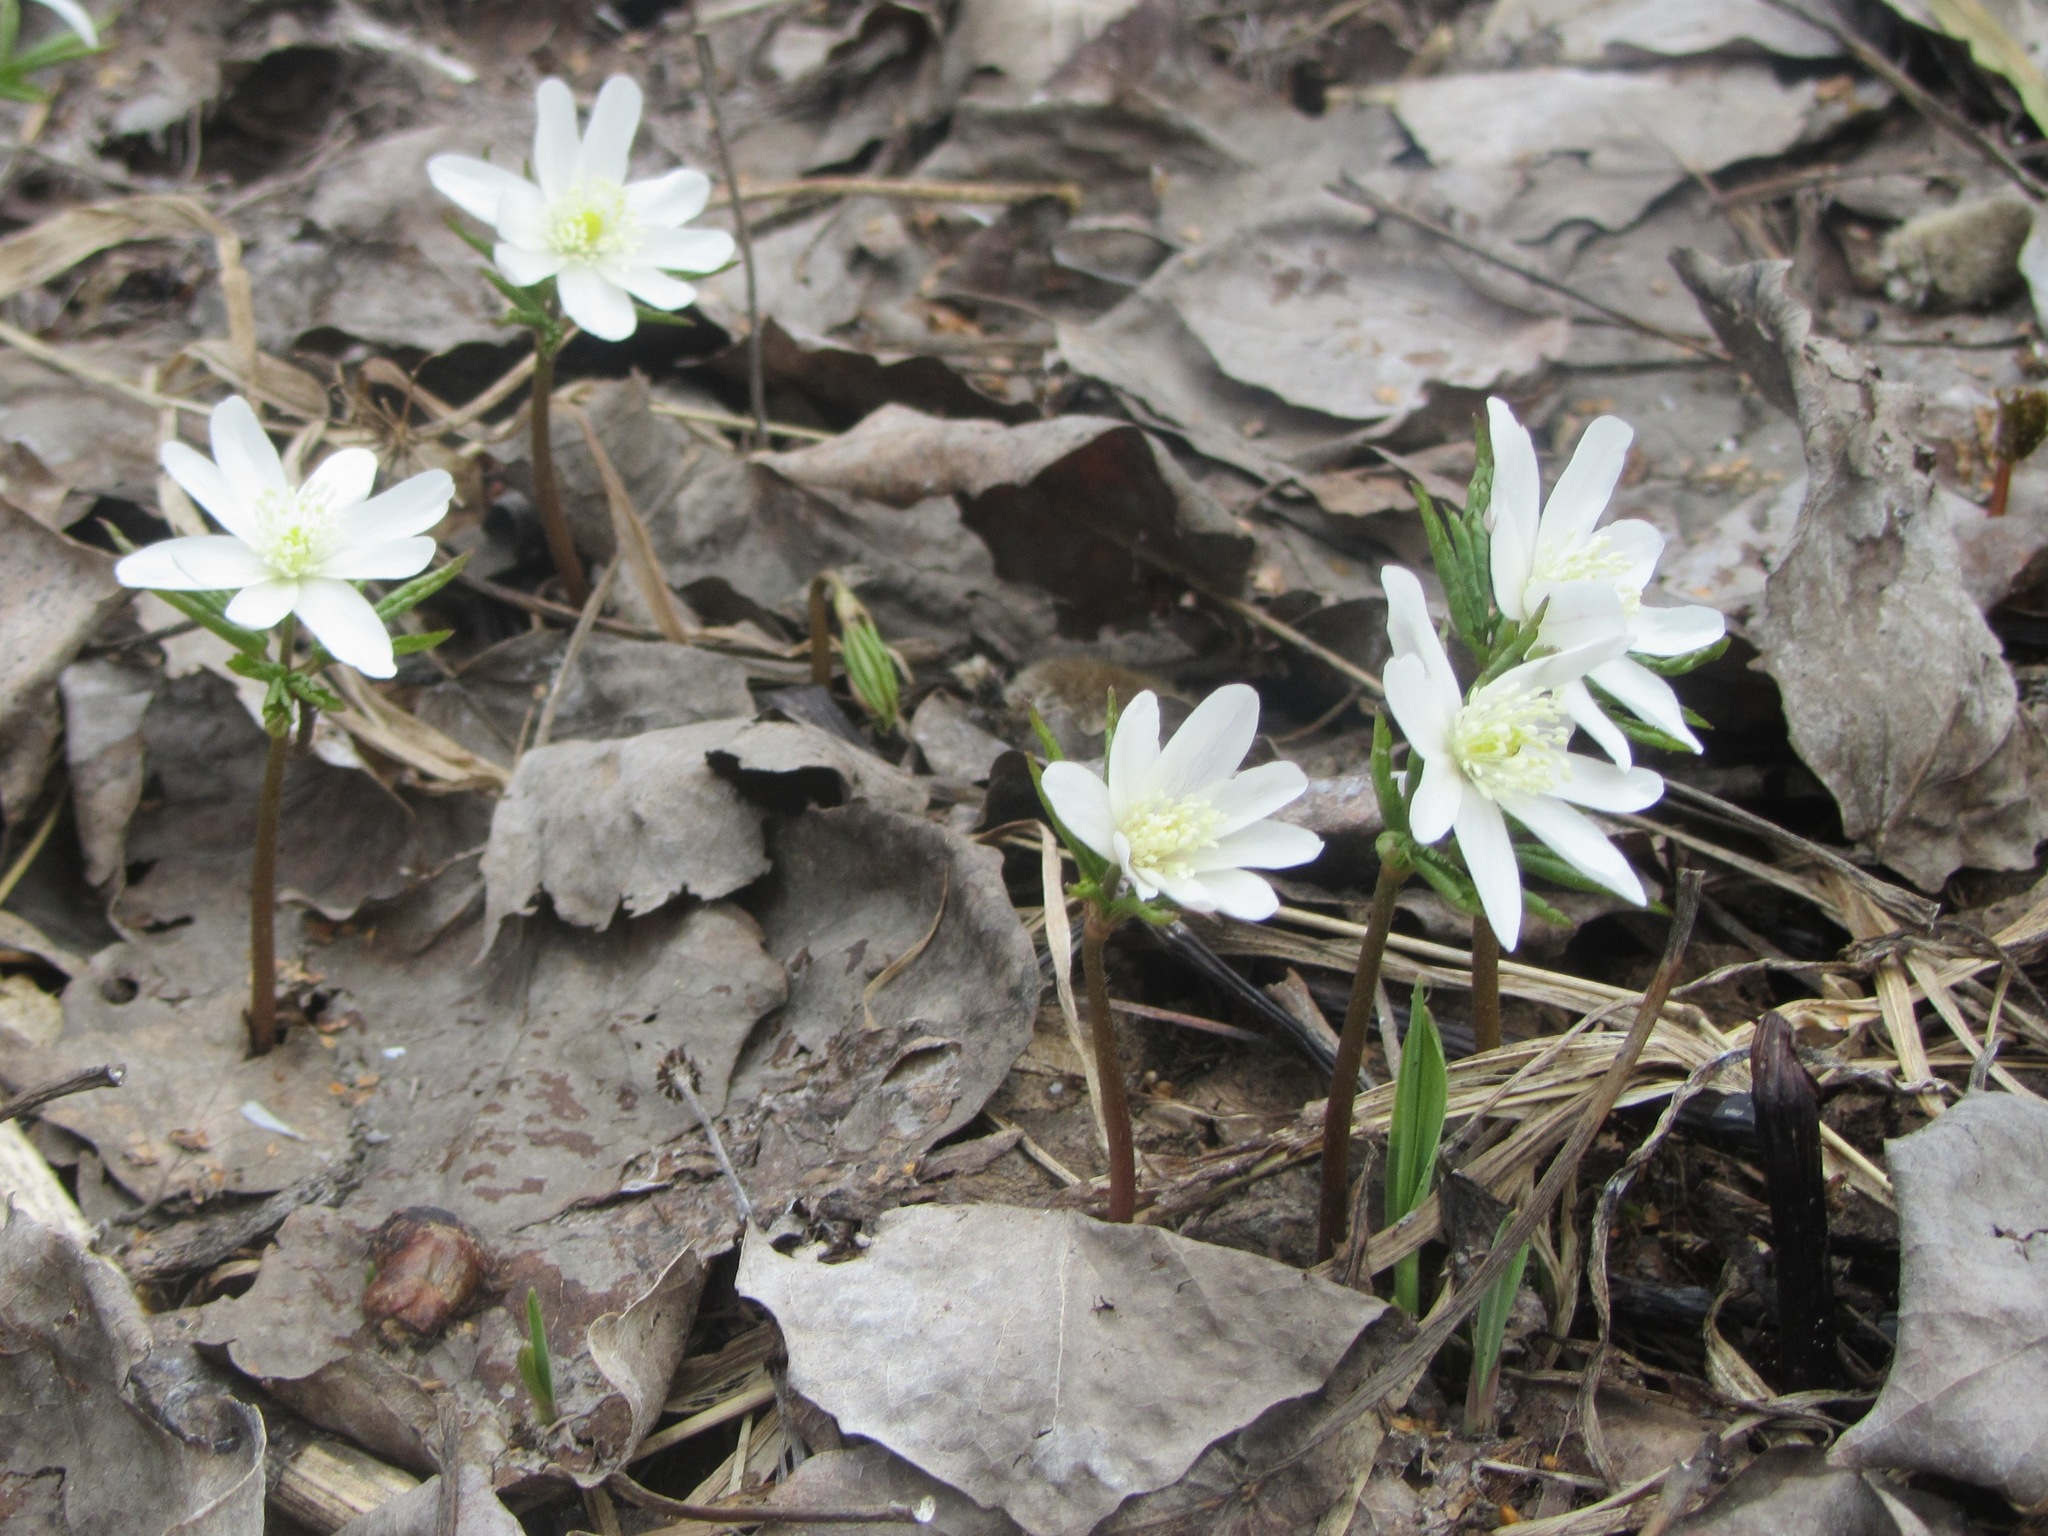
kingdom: Plantae
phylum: Tracheophyta
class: Magnoliopsida
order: Ranunculales
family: Ranunculaceae
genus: Anemone
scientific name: Anemone altaica
